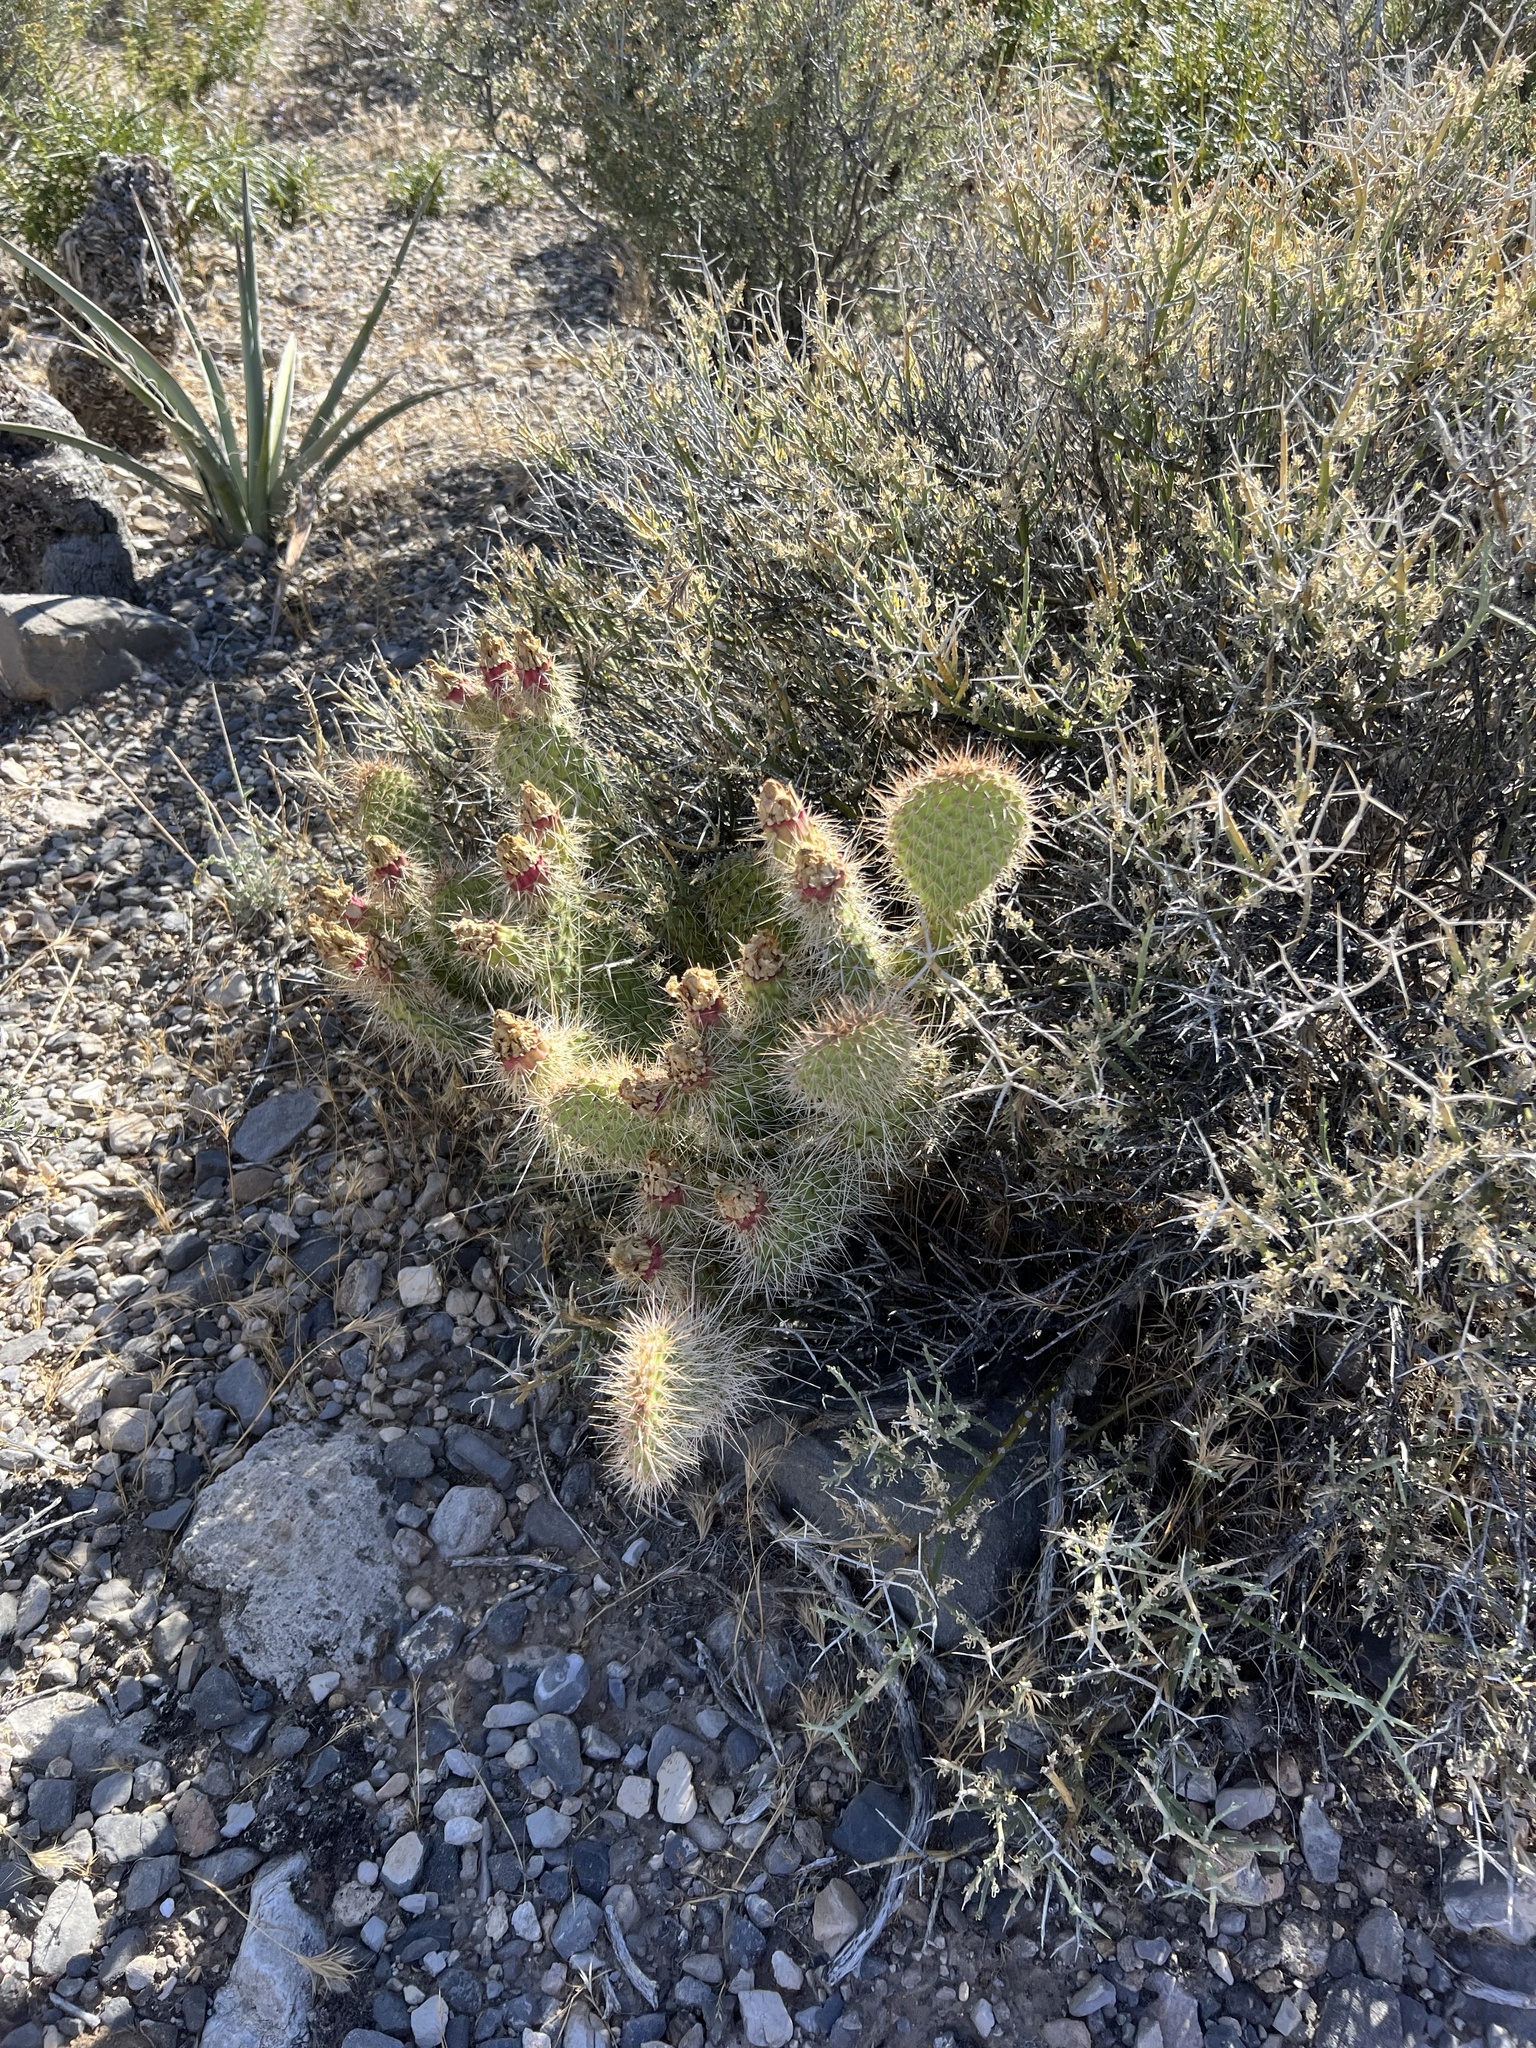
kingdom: Plantae
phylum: Tracheophyta
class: Magnoliopsida
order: Caryophyllales
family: Cactaceae
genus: Opuntia
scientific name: Opuntia polyacantha
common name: Plains prickly-pear
